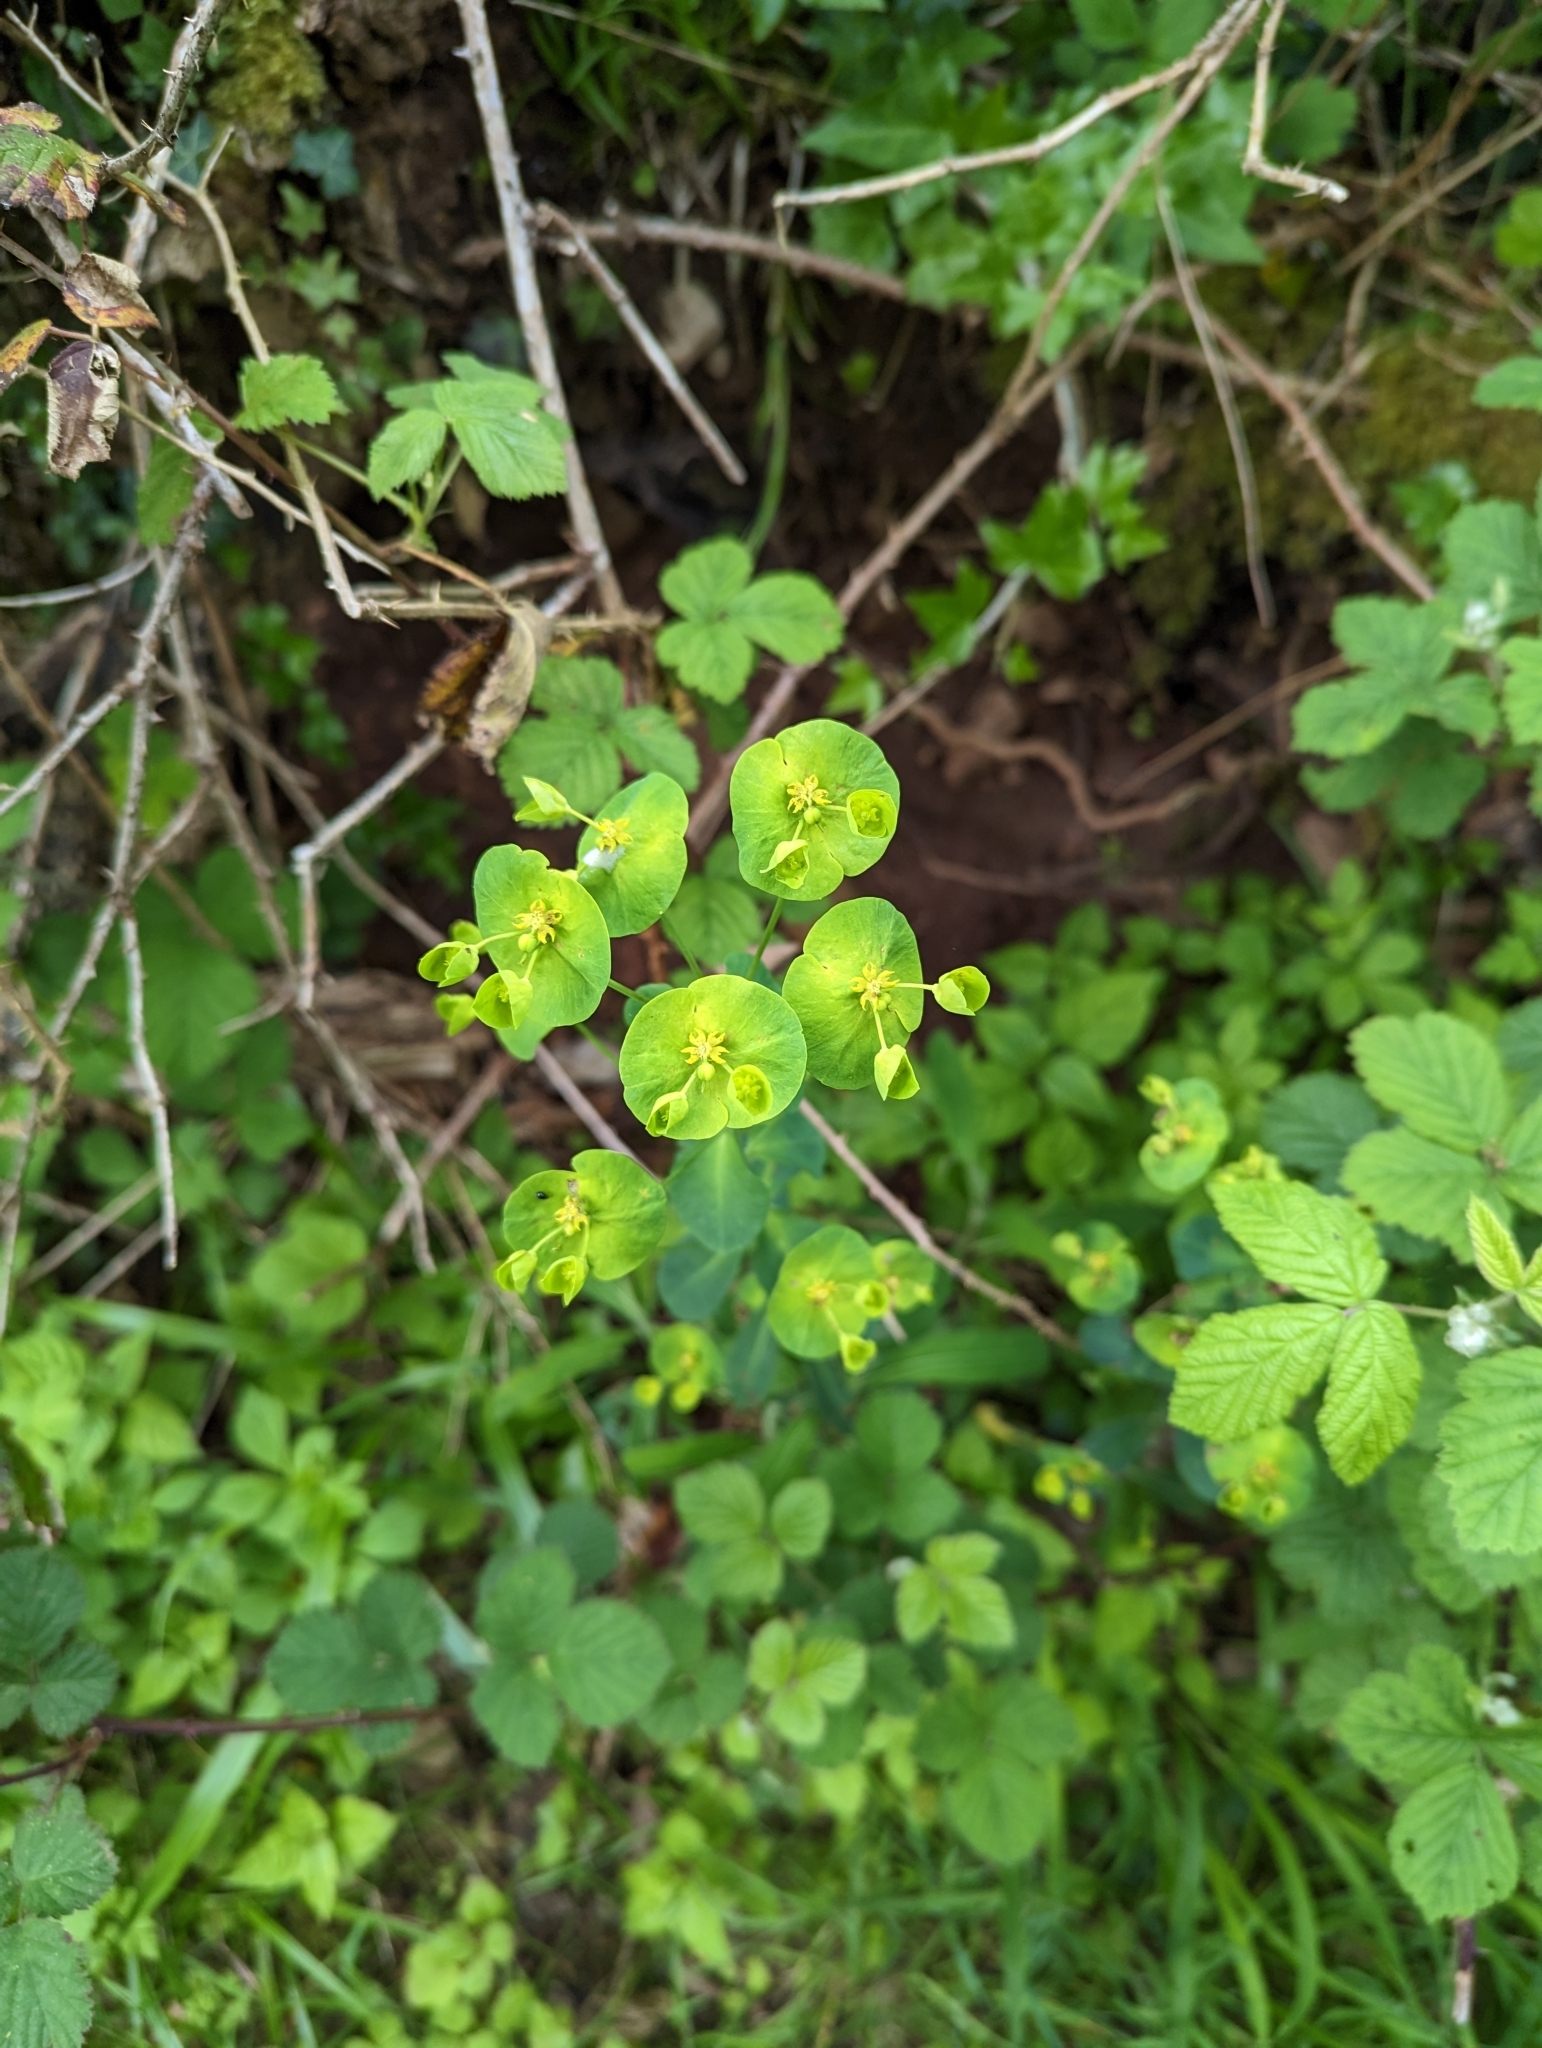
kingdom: Plantae
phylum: Tracheophyta
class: Magnoliopsida
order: Malpighiales
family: Euphorbiaceae
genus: Euphorbia
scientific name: Euphorbia amygdaloides
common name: Wood spurge
